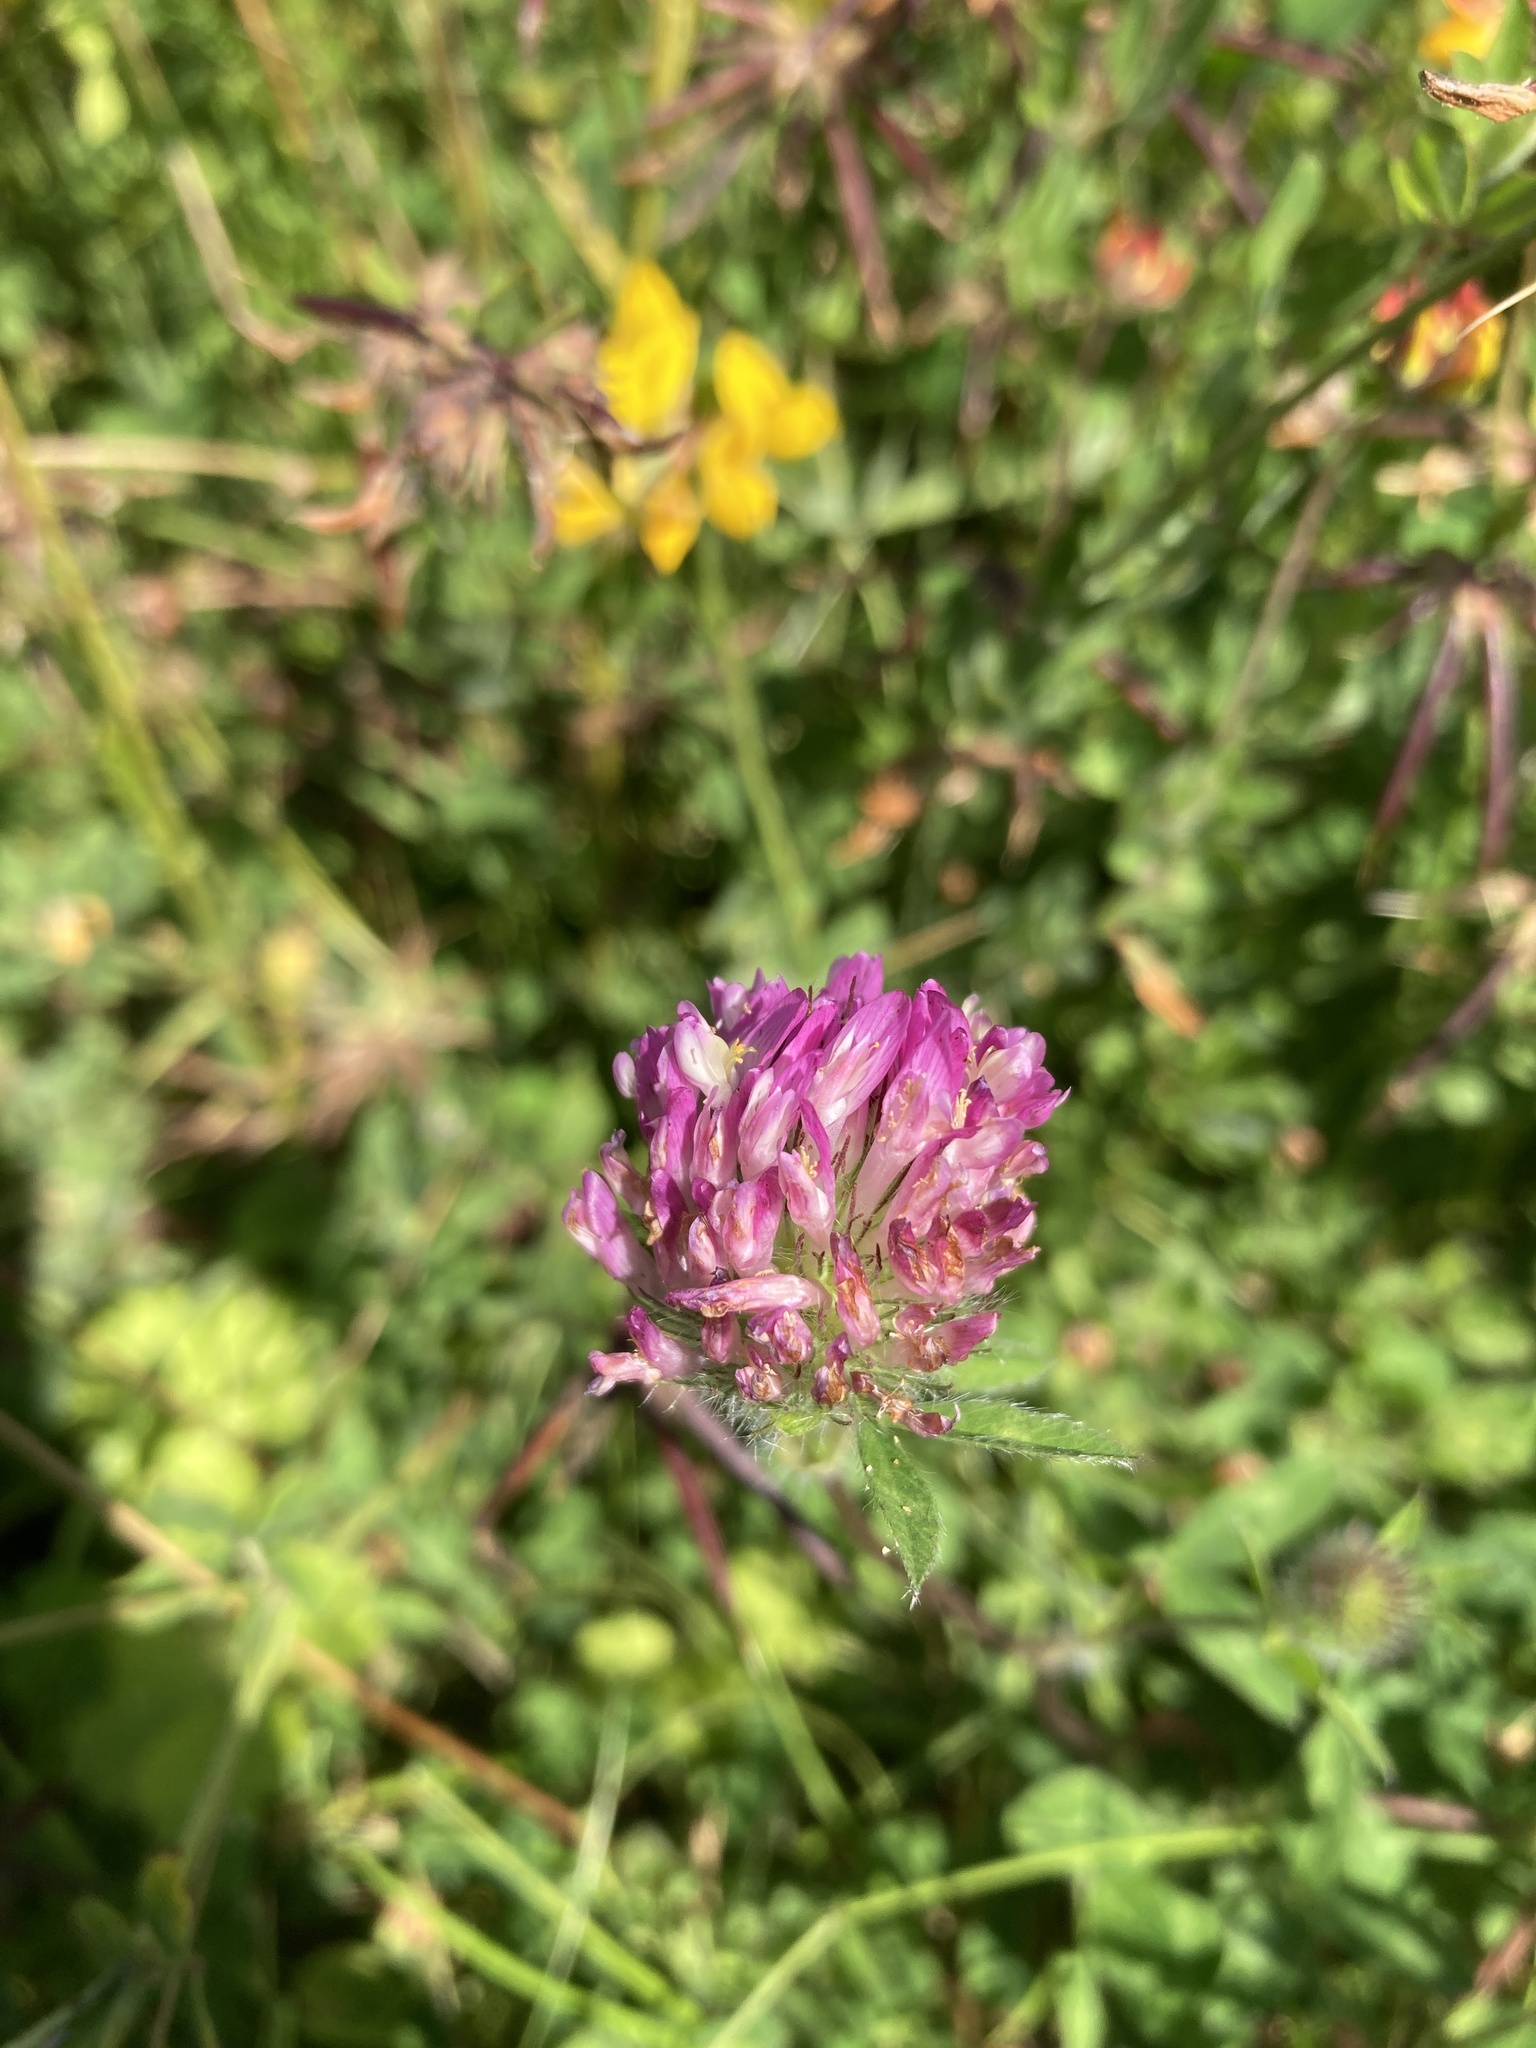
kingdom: Plantae
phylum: Tracheophyta
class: Magnoliopsida
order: Fabales
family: Fabaceae
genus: Trifolium
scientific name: Trifolium pratense
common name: Red clover
